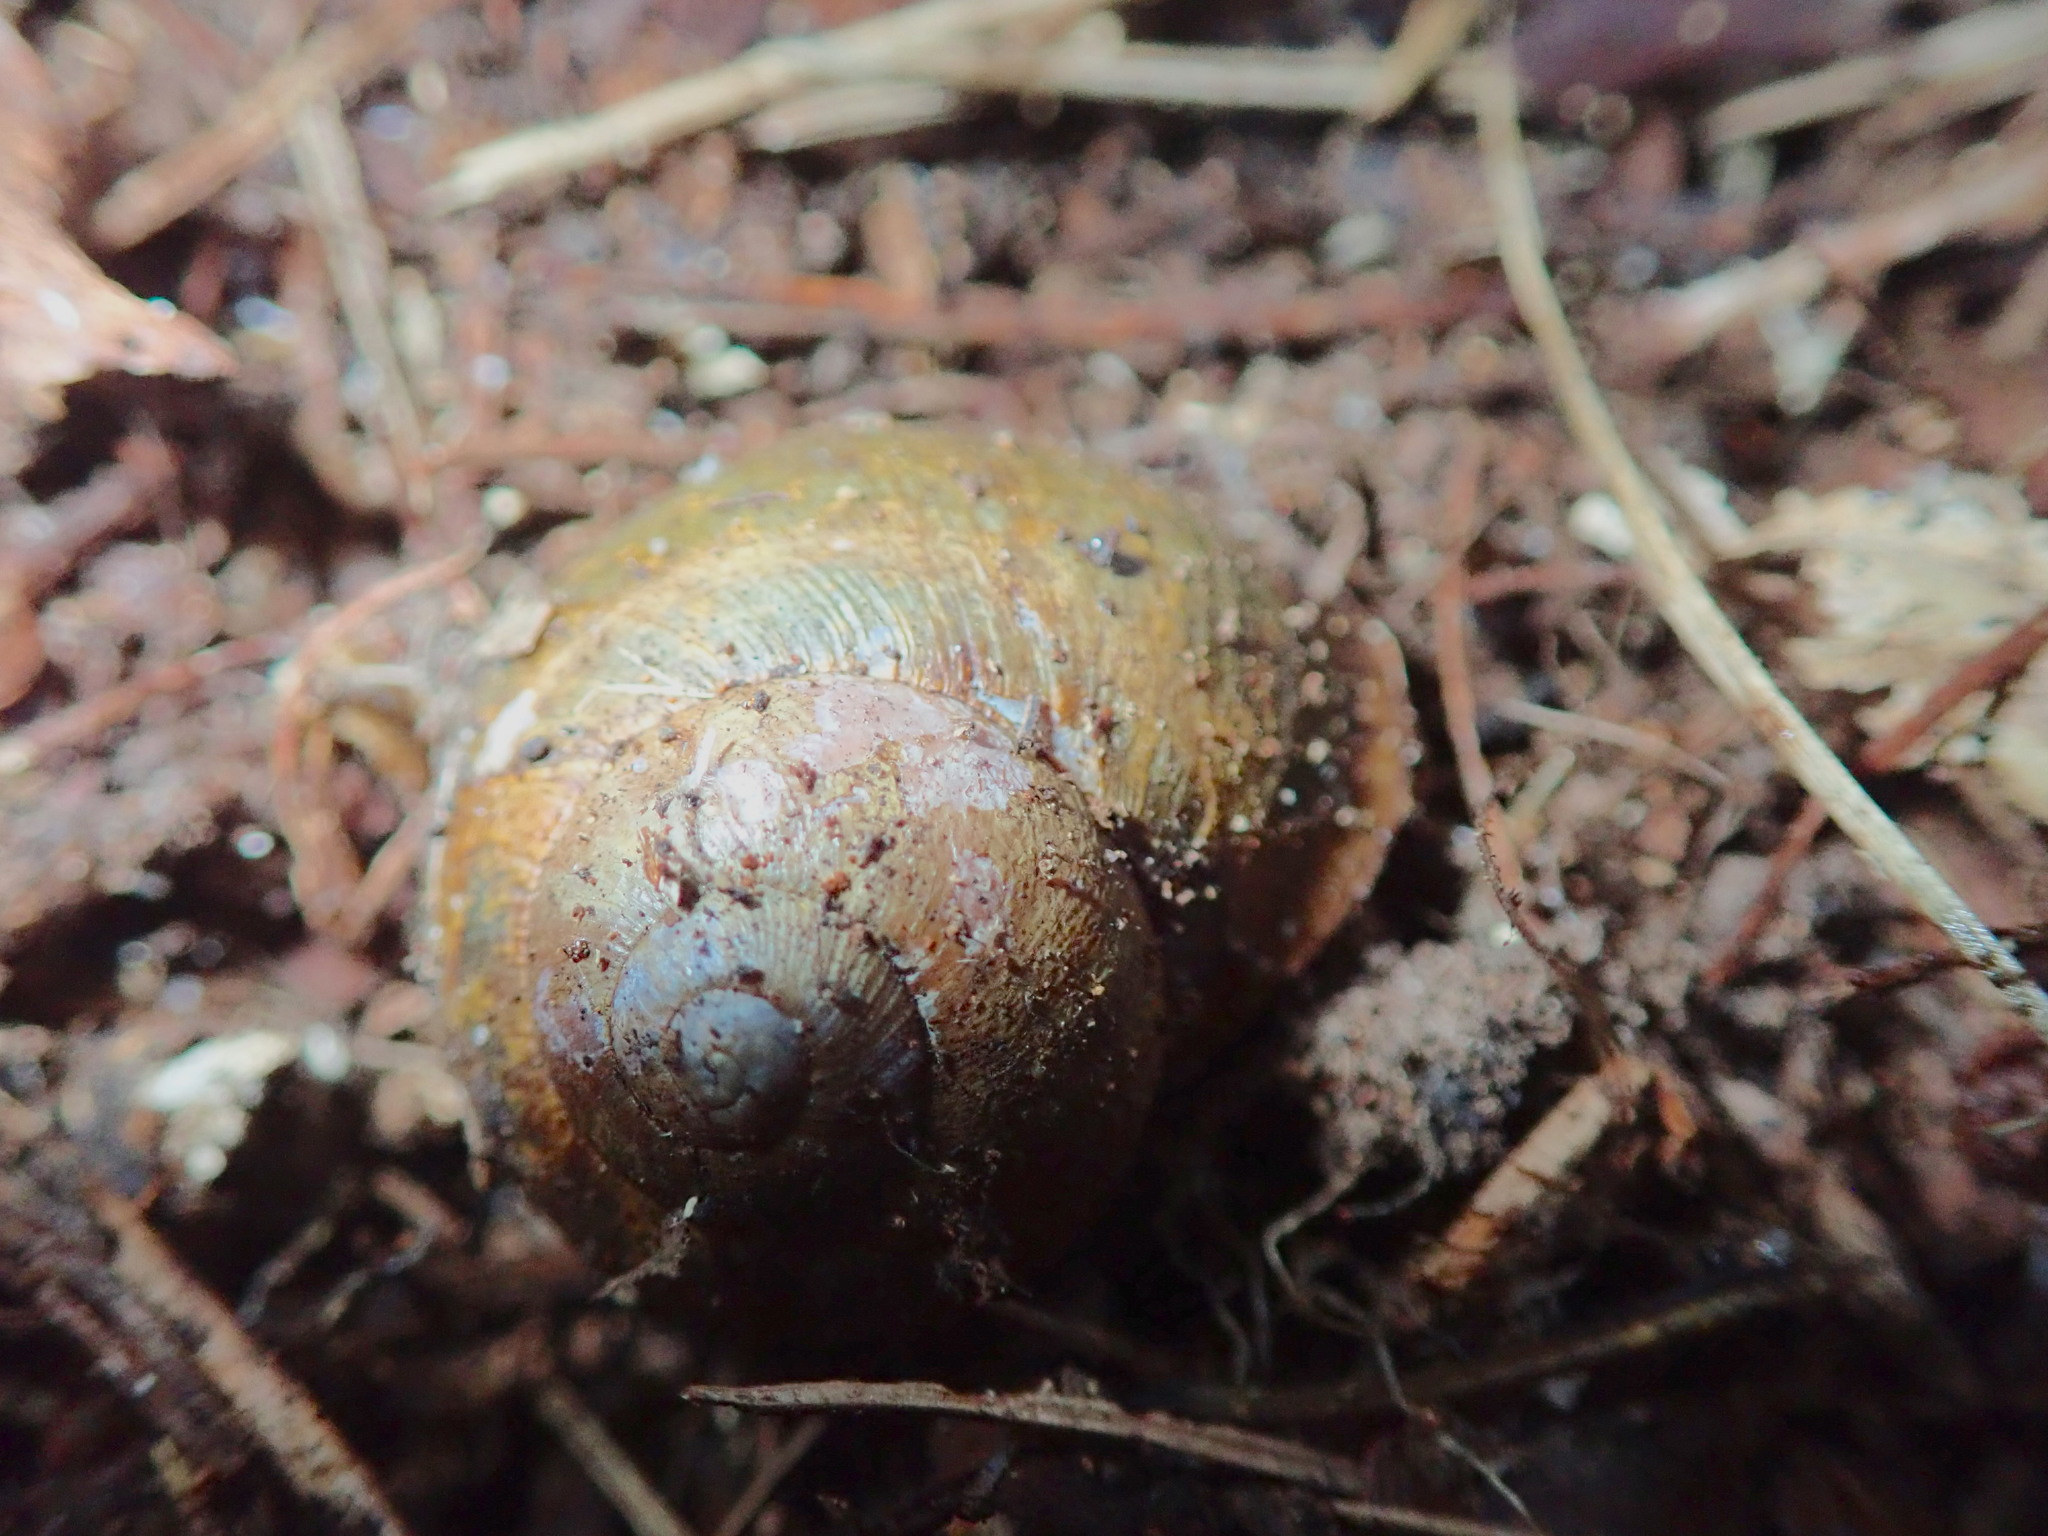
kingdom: Animalia
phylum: Mollusca
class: Gastropoda
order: Stylommatophora
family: Helicidae
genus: Cornu
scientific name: Cornu aspersum
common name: Brown garden snail
